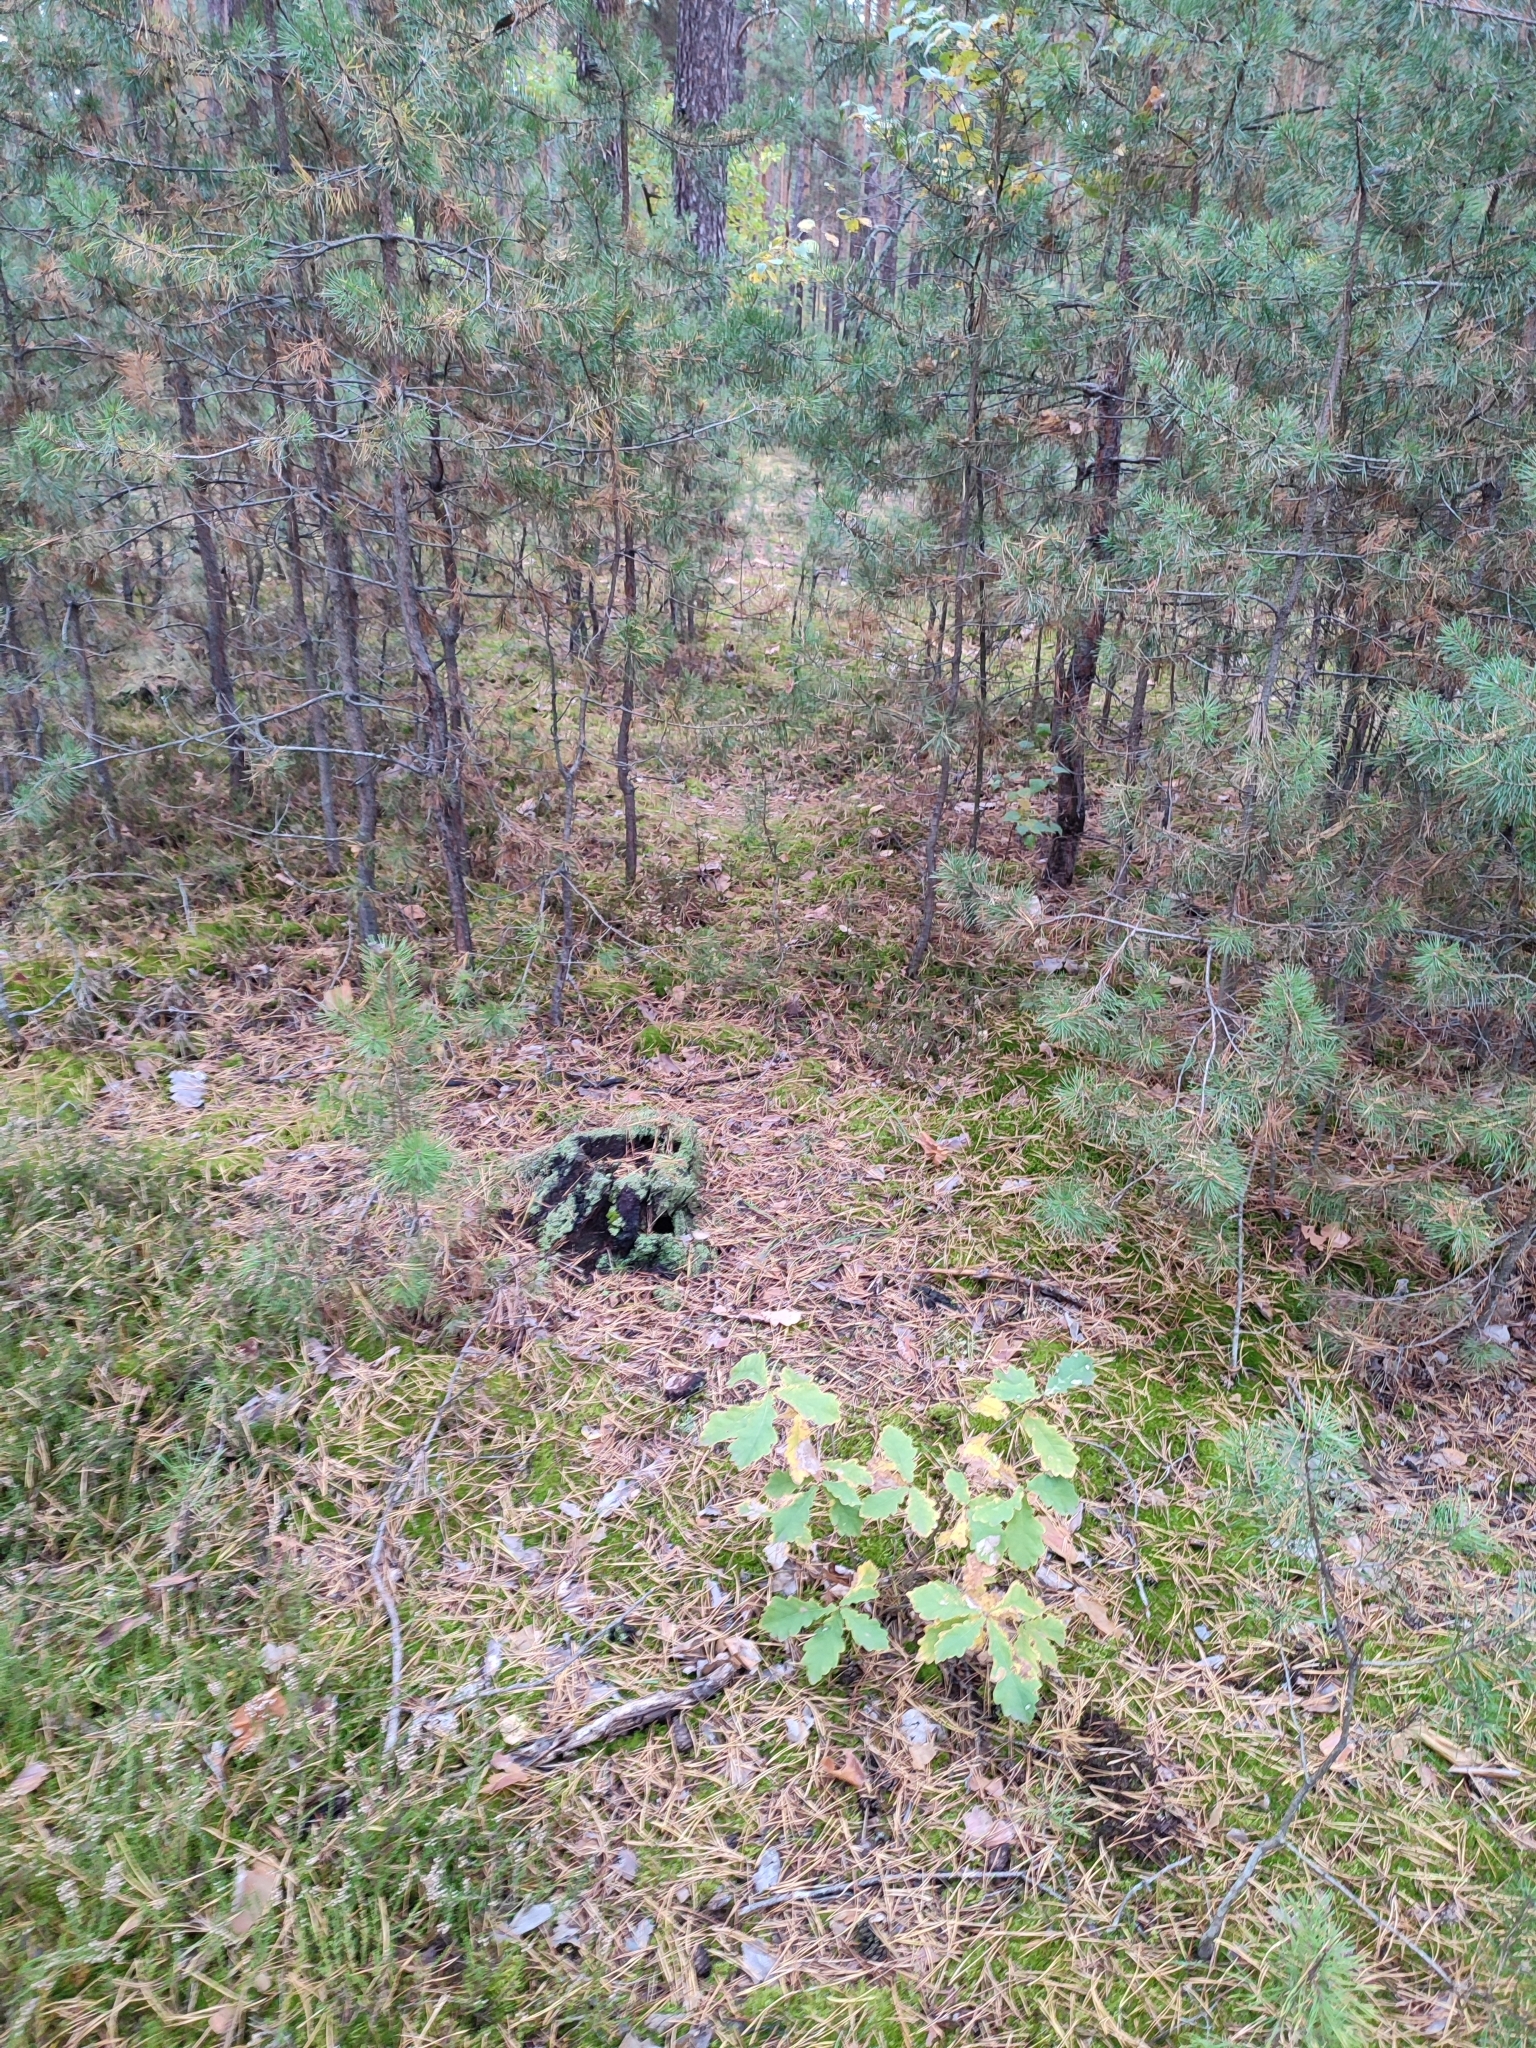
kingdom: Plantae
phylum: Tracheophyta
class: Magnoliopsida
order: Fagales
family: Fagaceae
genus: Quercus
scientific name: Quercus robur
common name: Pedunculate oak
